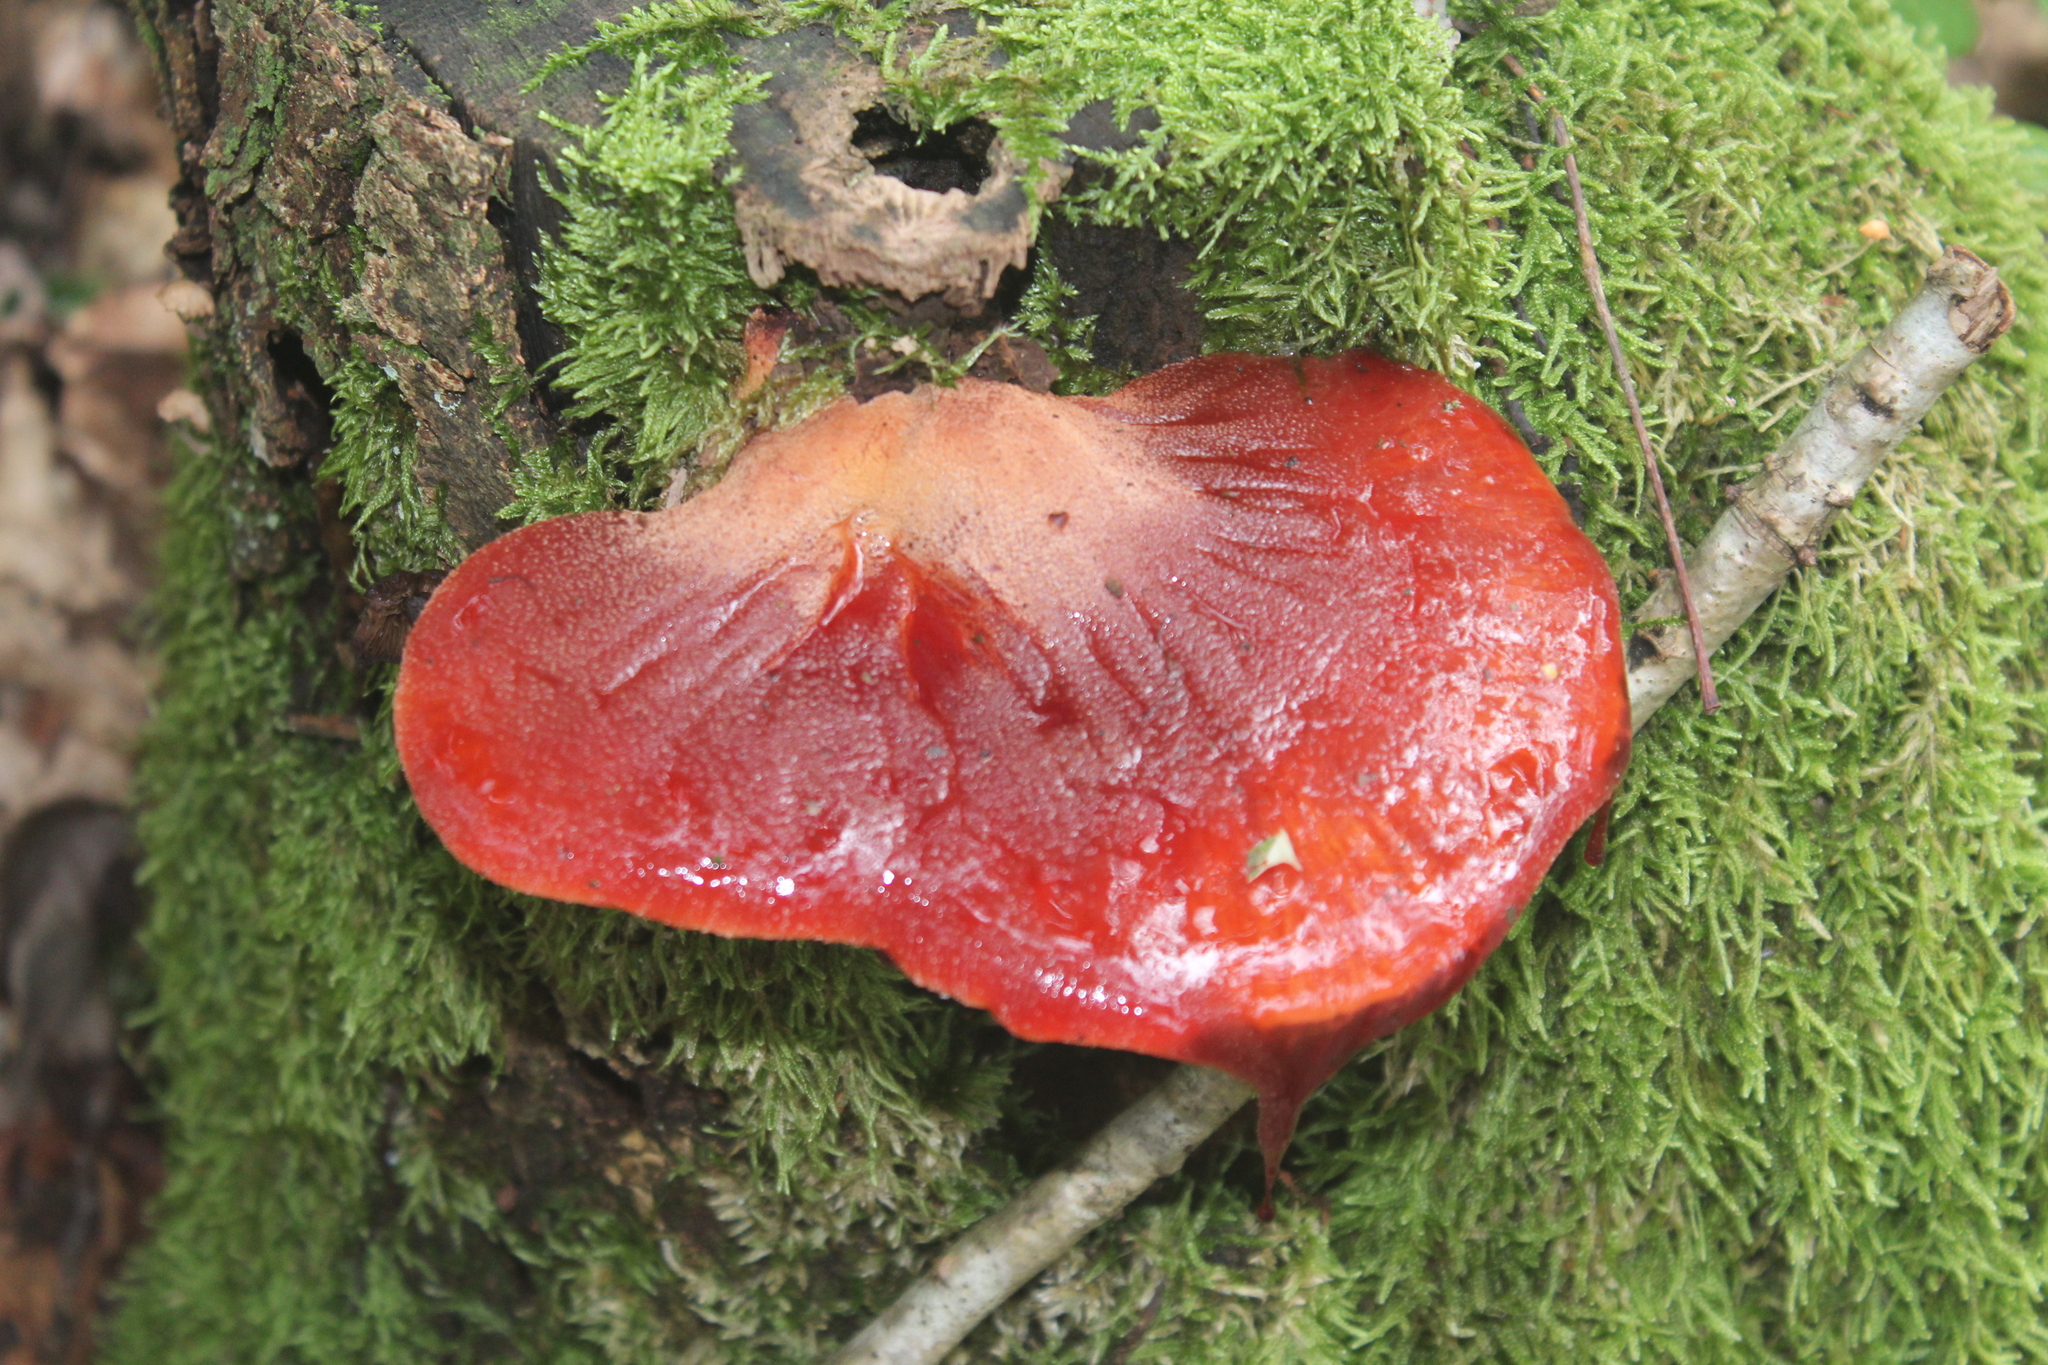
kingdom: Fungi
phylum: Basidiomycota
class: Agaricomycetes
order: Agaricales
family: Fistulinaceae
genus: Fistulina
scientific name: Fistulina hepatica
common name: Beef-steak fungus
